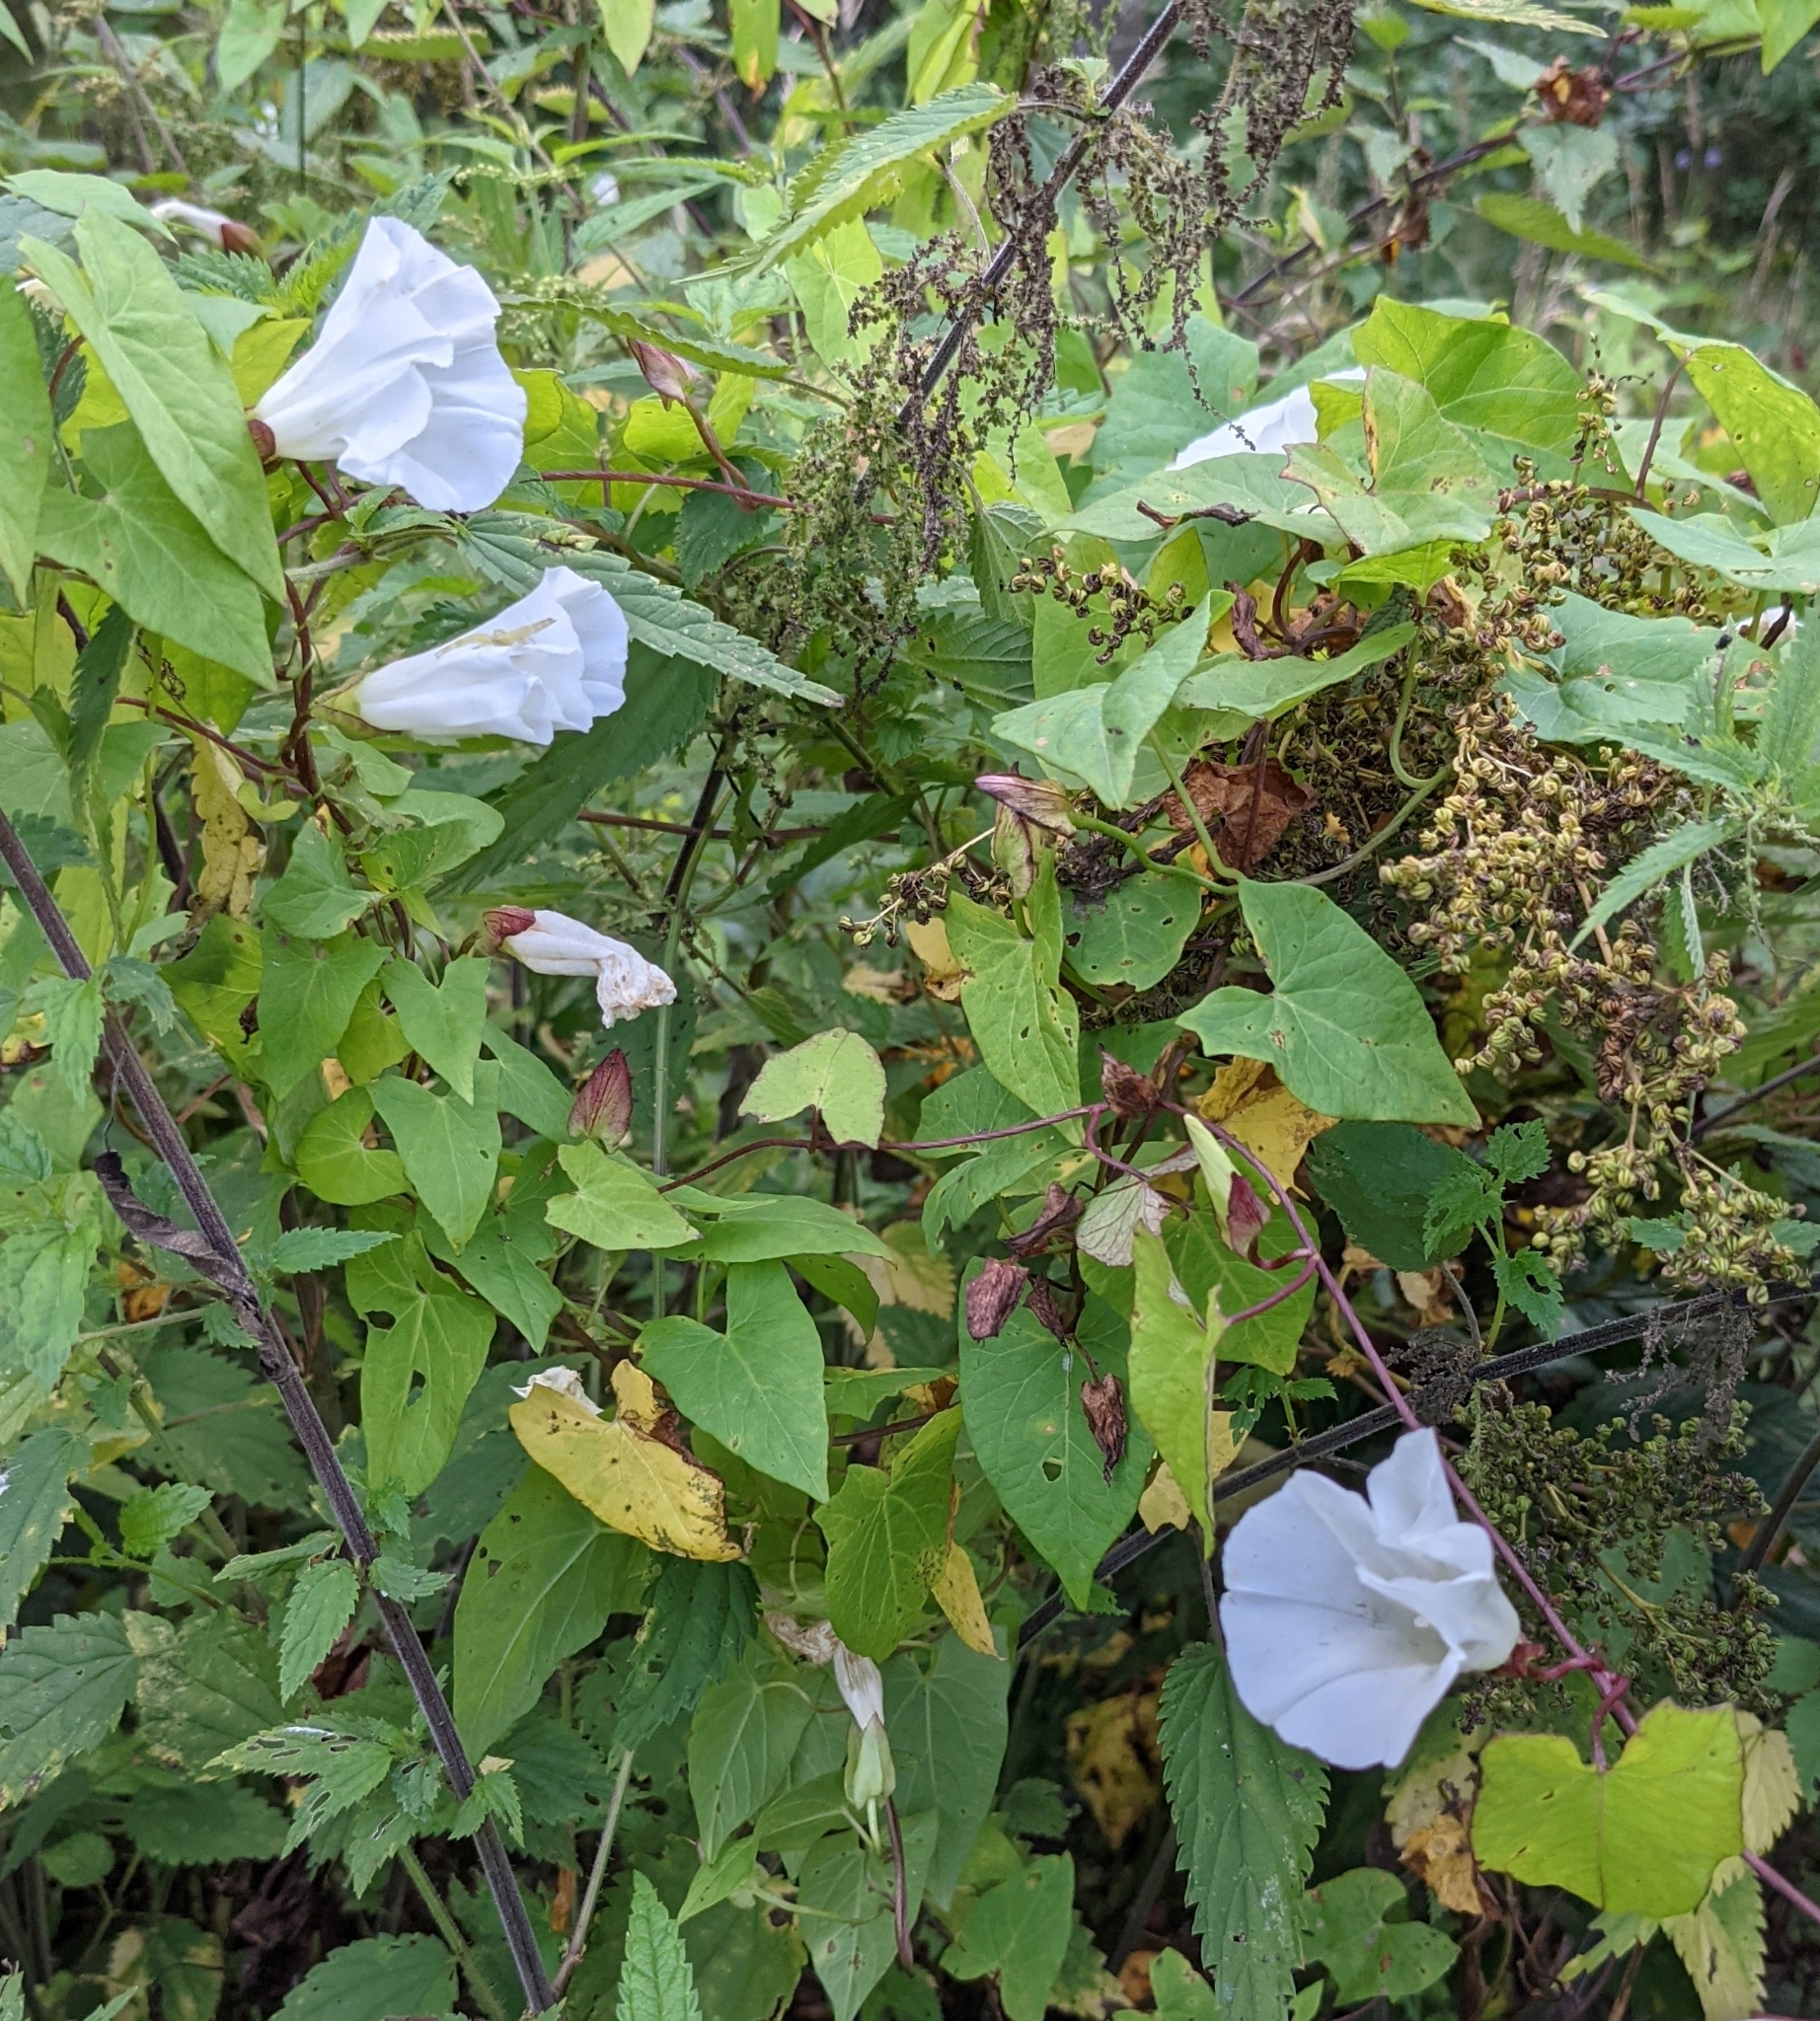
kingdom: Plantae
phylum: Tracheophyta
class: Magnoliopsida
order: Solanales
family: Convolvulaceae
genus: Calystegia
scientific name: Calystegia sepium
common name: Hedge bindweed
